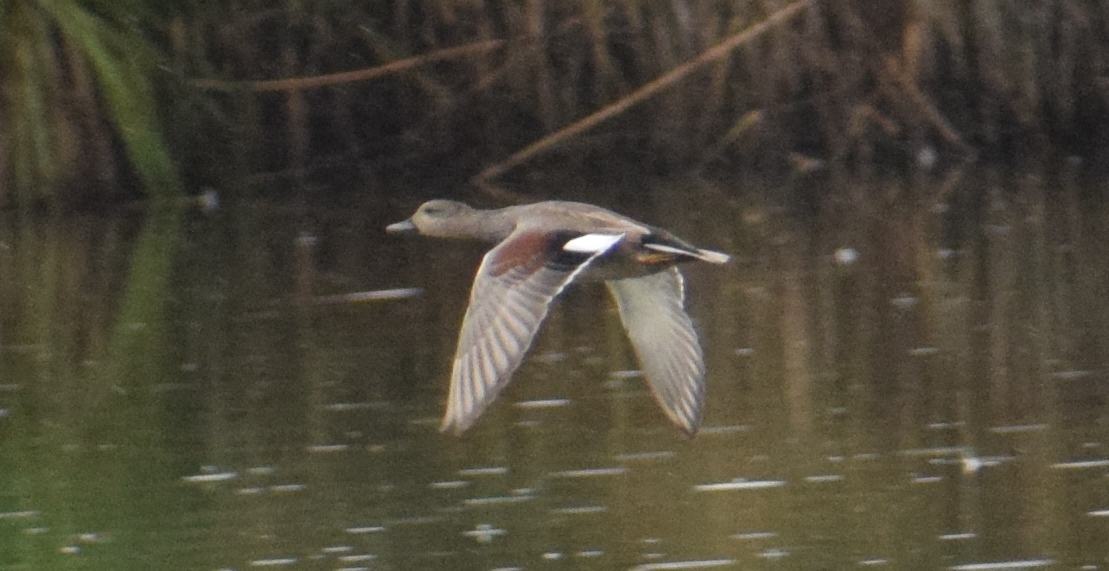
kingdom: Animalia
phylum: Chordata
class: Aves
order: Anseriformes
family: Anatidae
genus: Mareca
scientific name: Mareca strepera
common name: Gadwall
